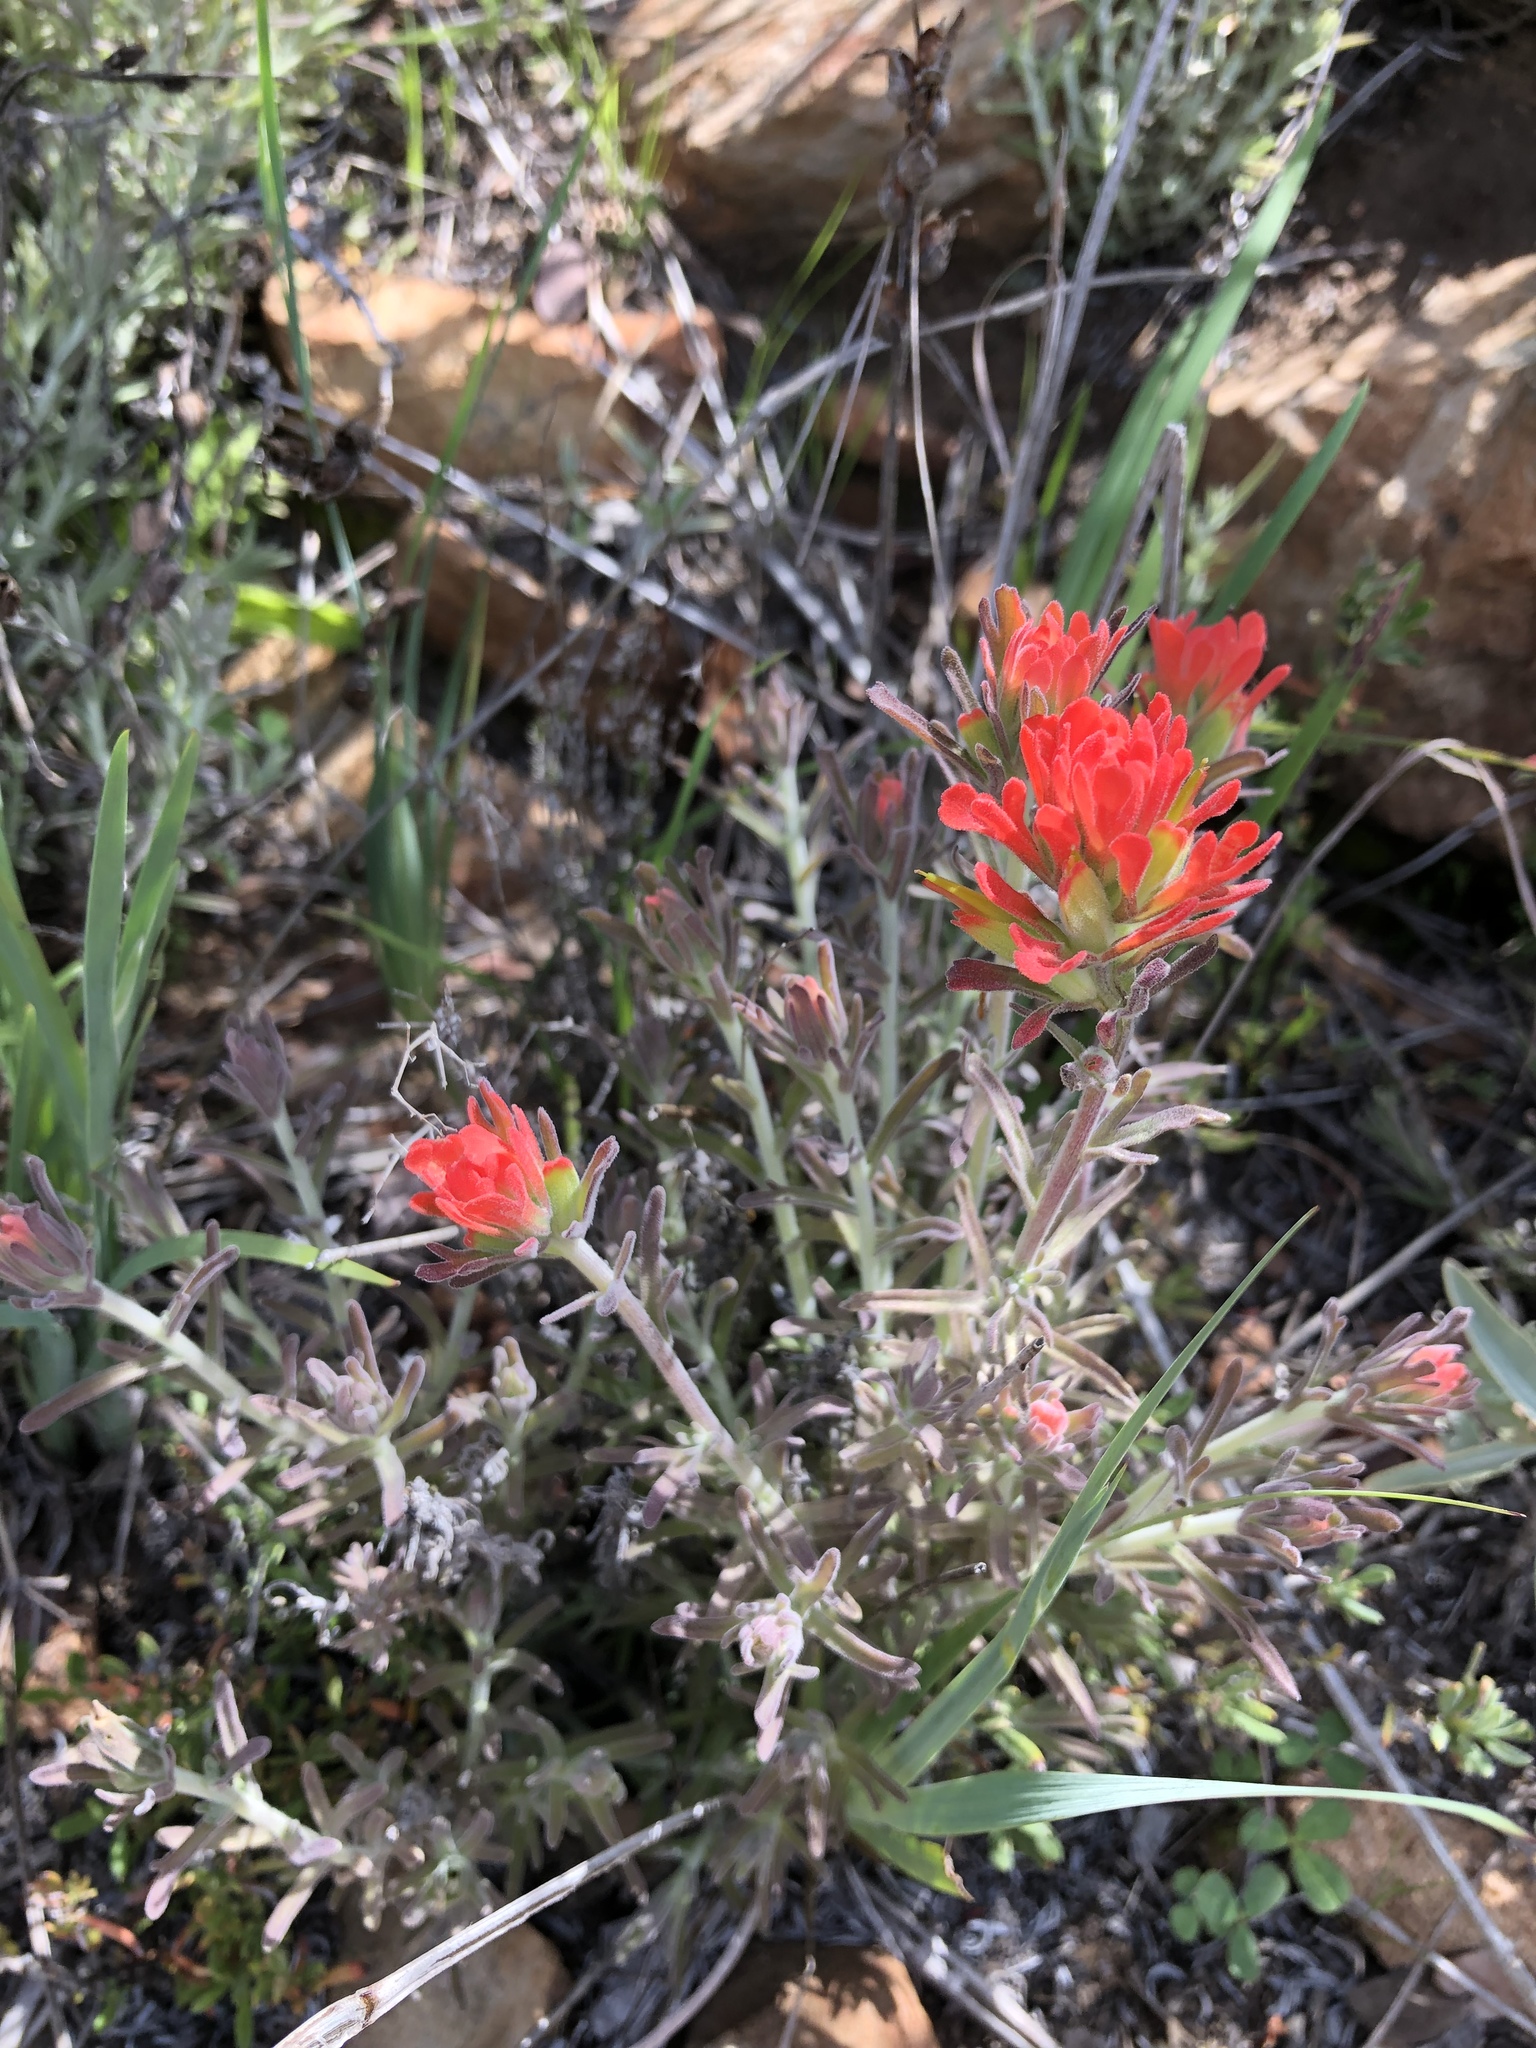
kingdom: Plantae
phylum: Tracheophyta
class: Magnoliopsida
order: Lamiales
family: Orobanchaceae
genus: Castilleja
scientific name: Castilleja foliolosa
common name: Woolly indian paintbrush
